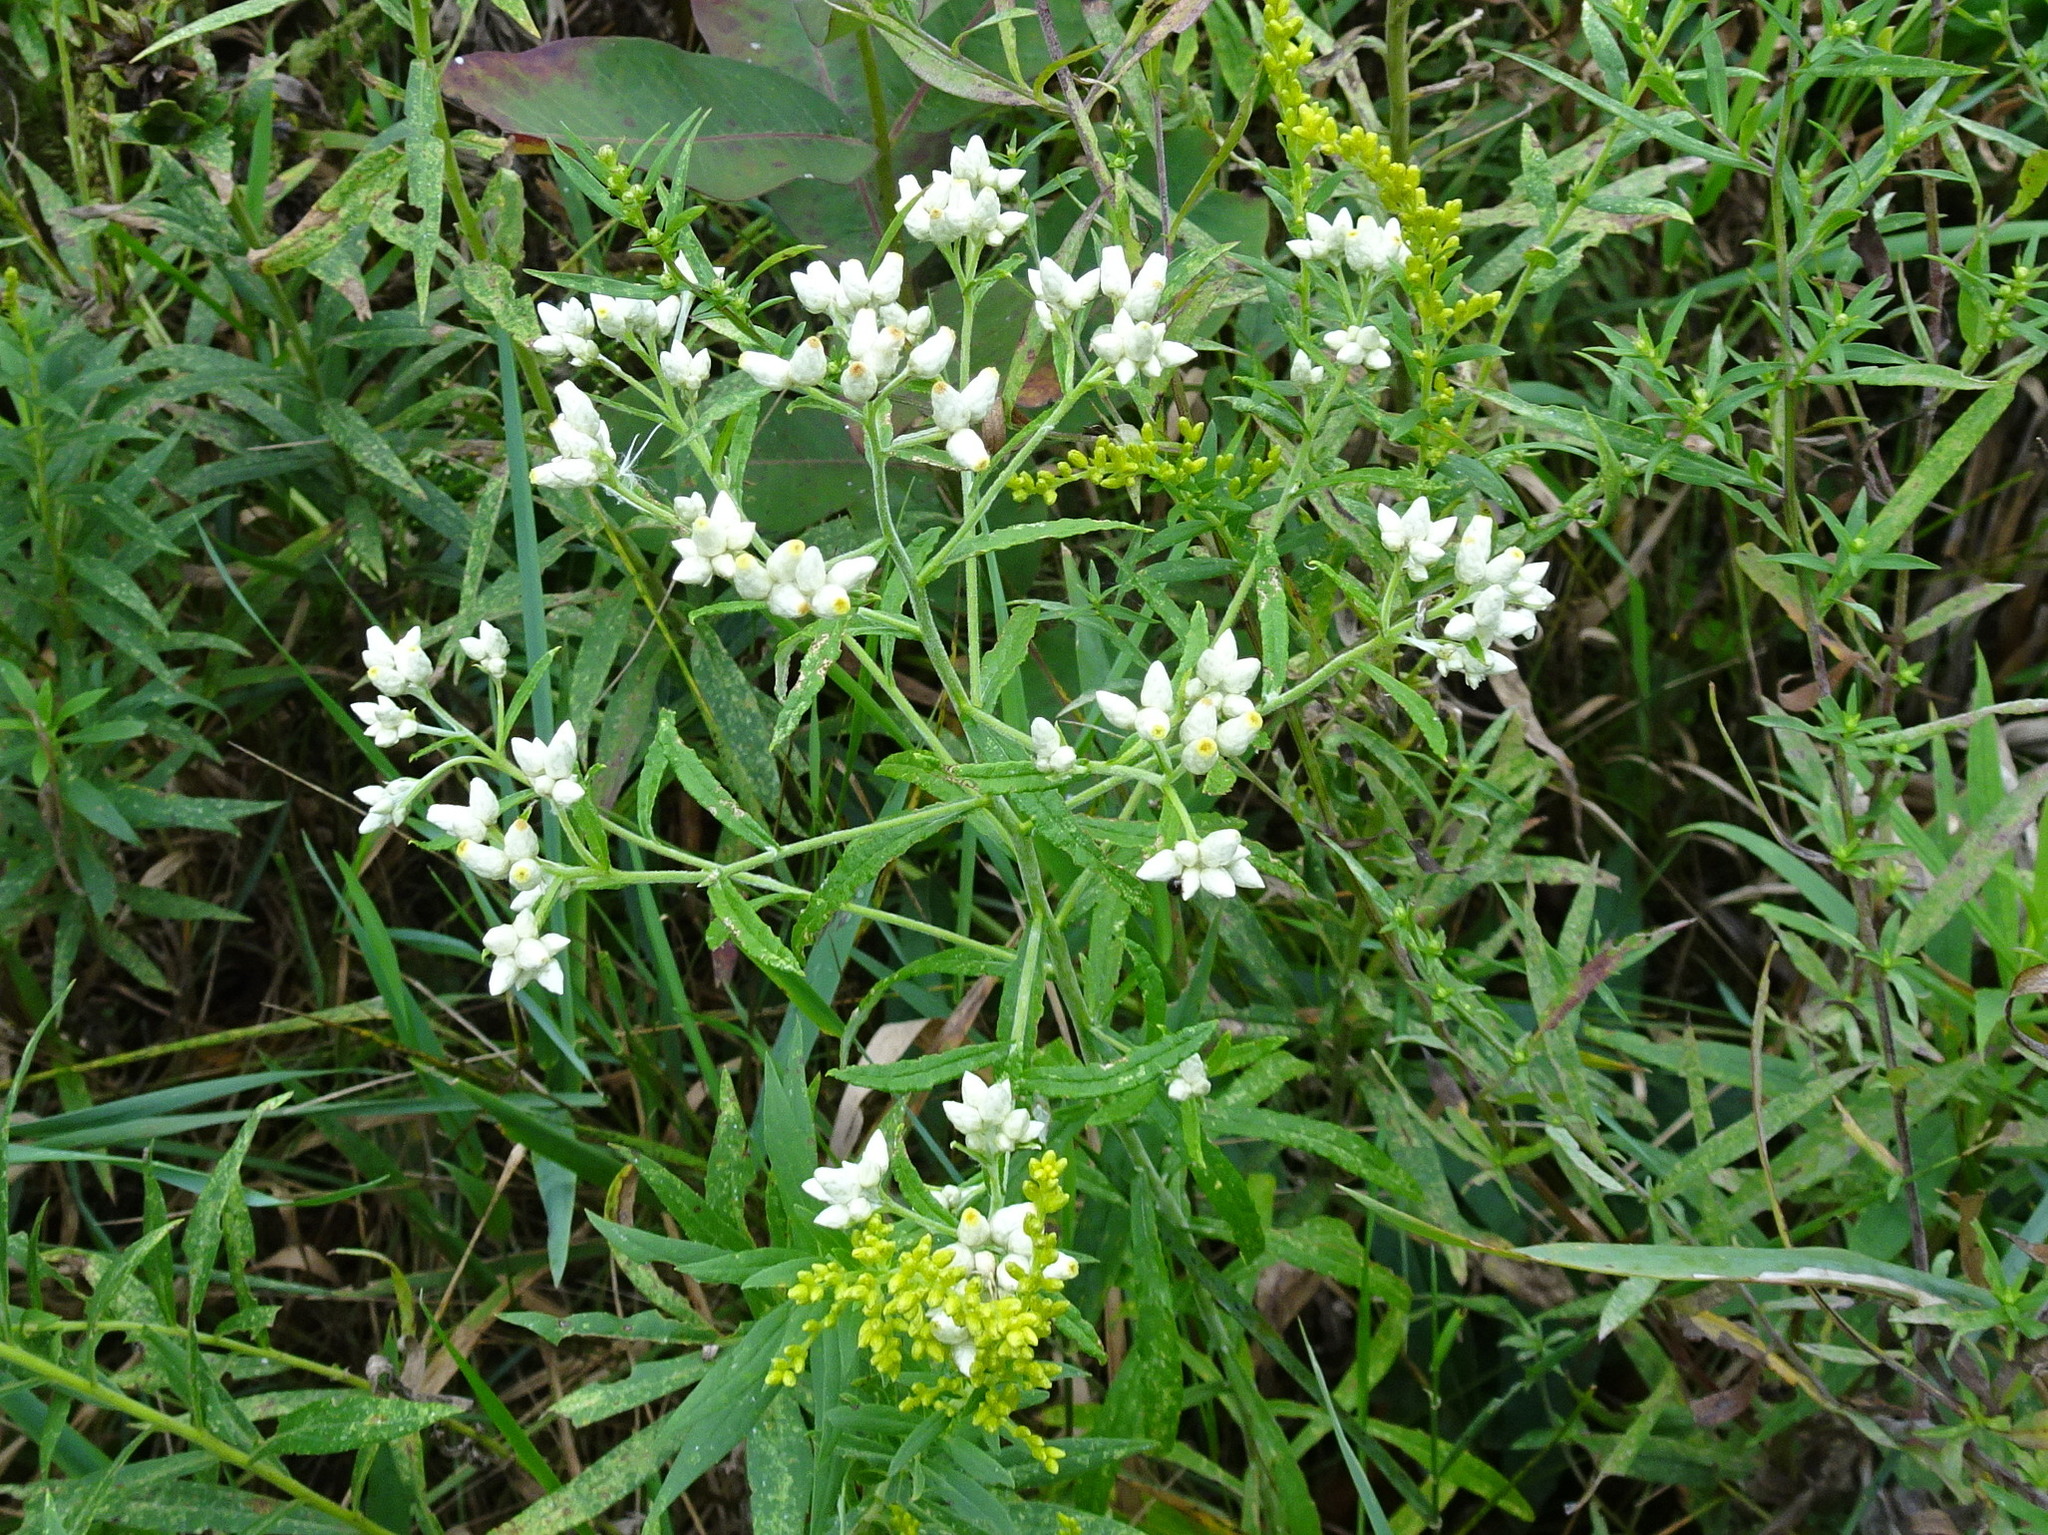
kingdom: Plantae
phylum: Tracheophyta
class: Magnoliopsida
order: Asterales
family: Asteraceae
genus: Pseudognaphalium
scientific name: Pseudognaphalium obtusifolium
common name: Eastern rabbit-tobacco
